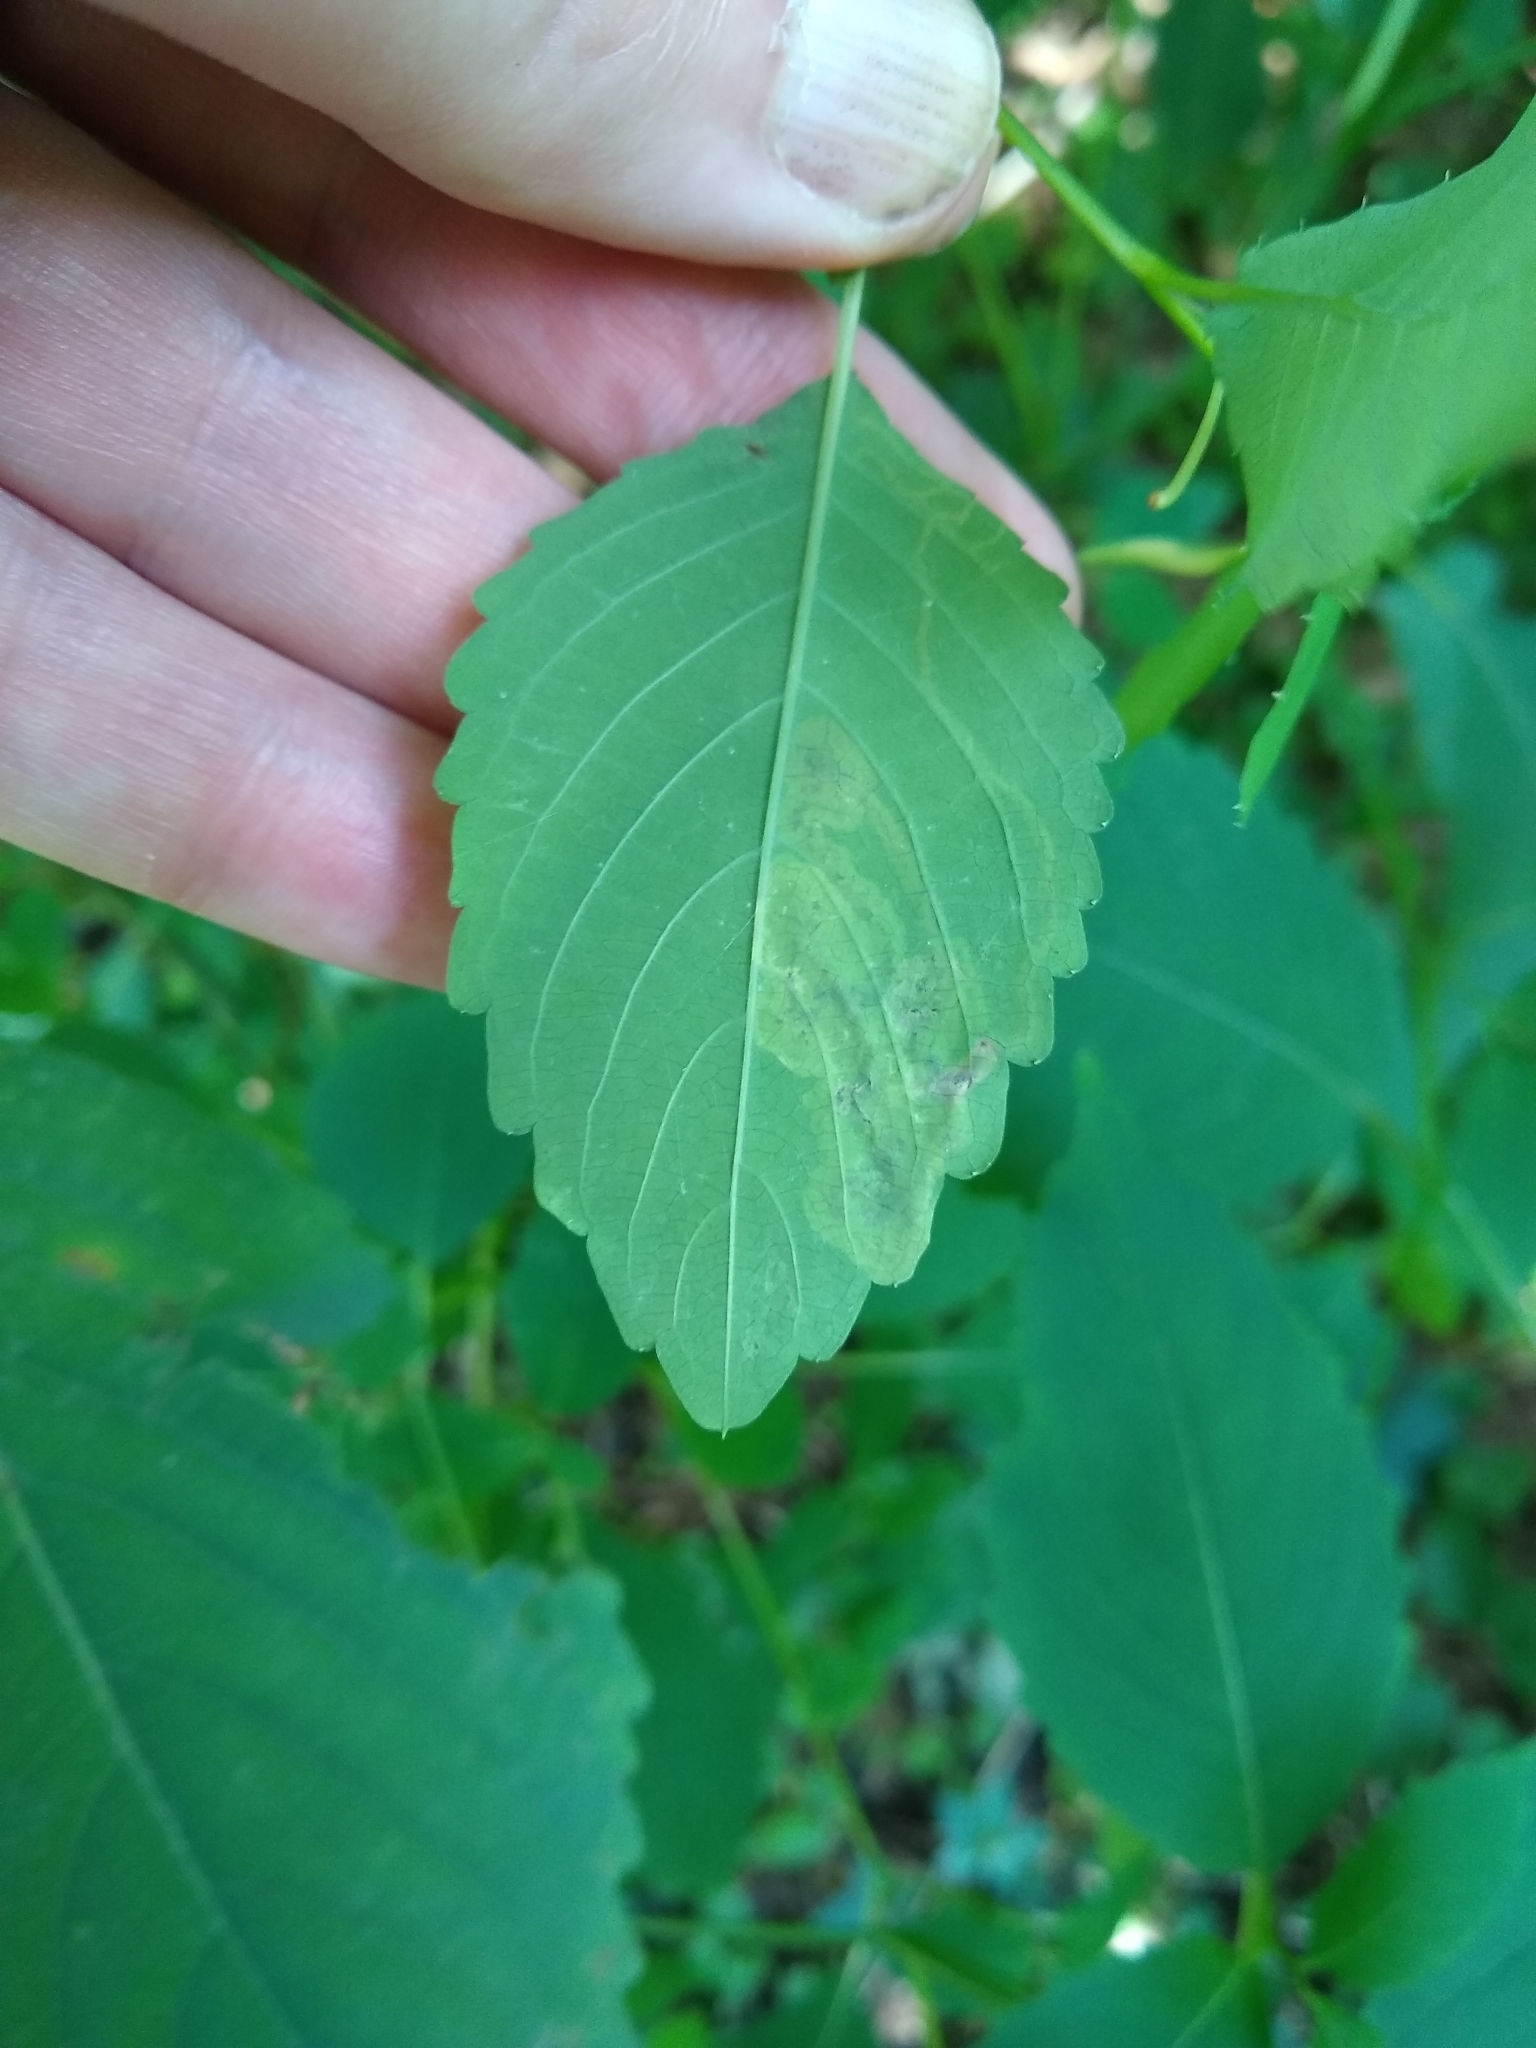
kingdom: Animalia
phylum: Arthropoda
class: Insecta
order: Diptera
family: Agromyzidae
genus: Phytoliriomyza
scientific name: Phytoliriomyza melampyga
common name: Jewelweed leaf-miner fly
